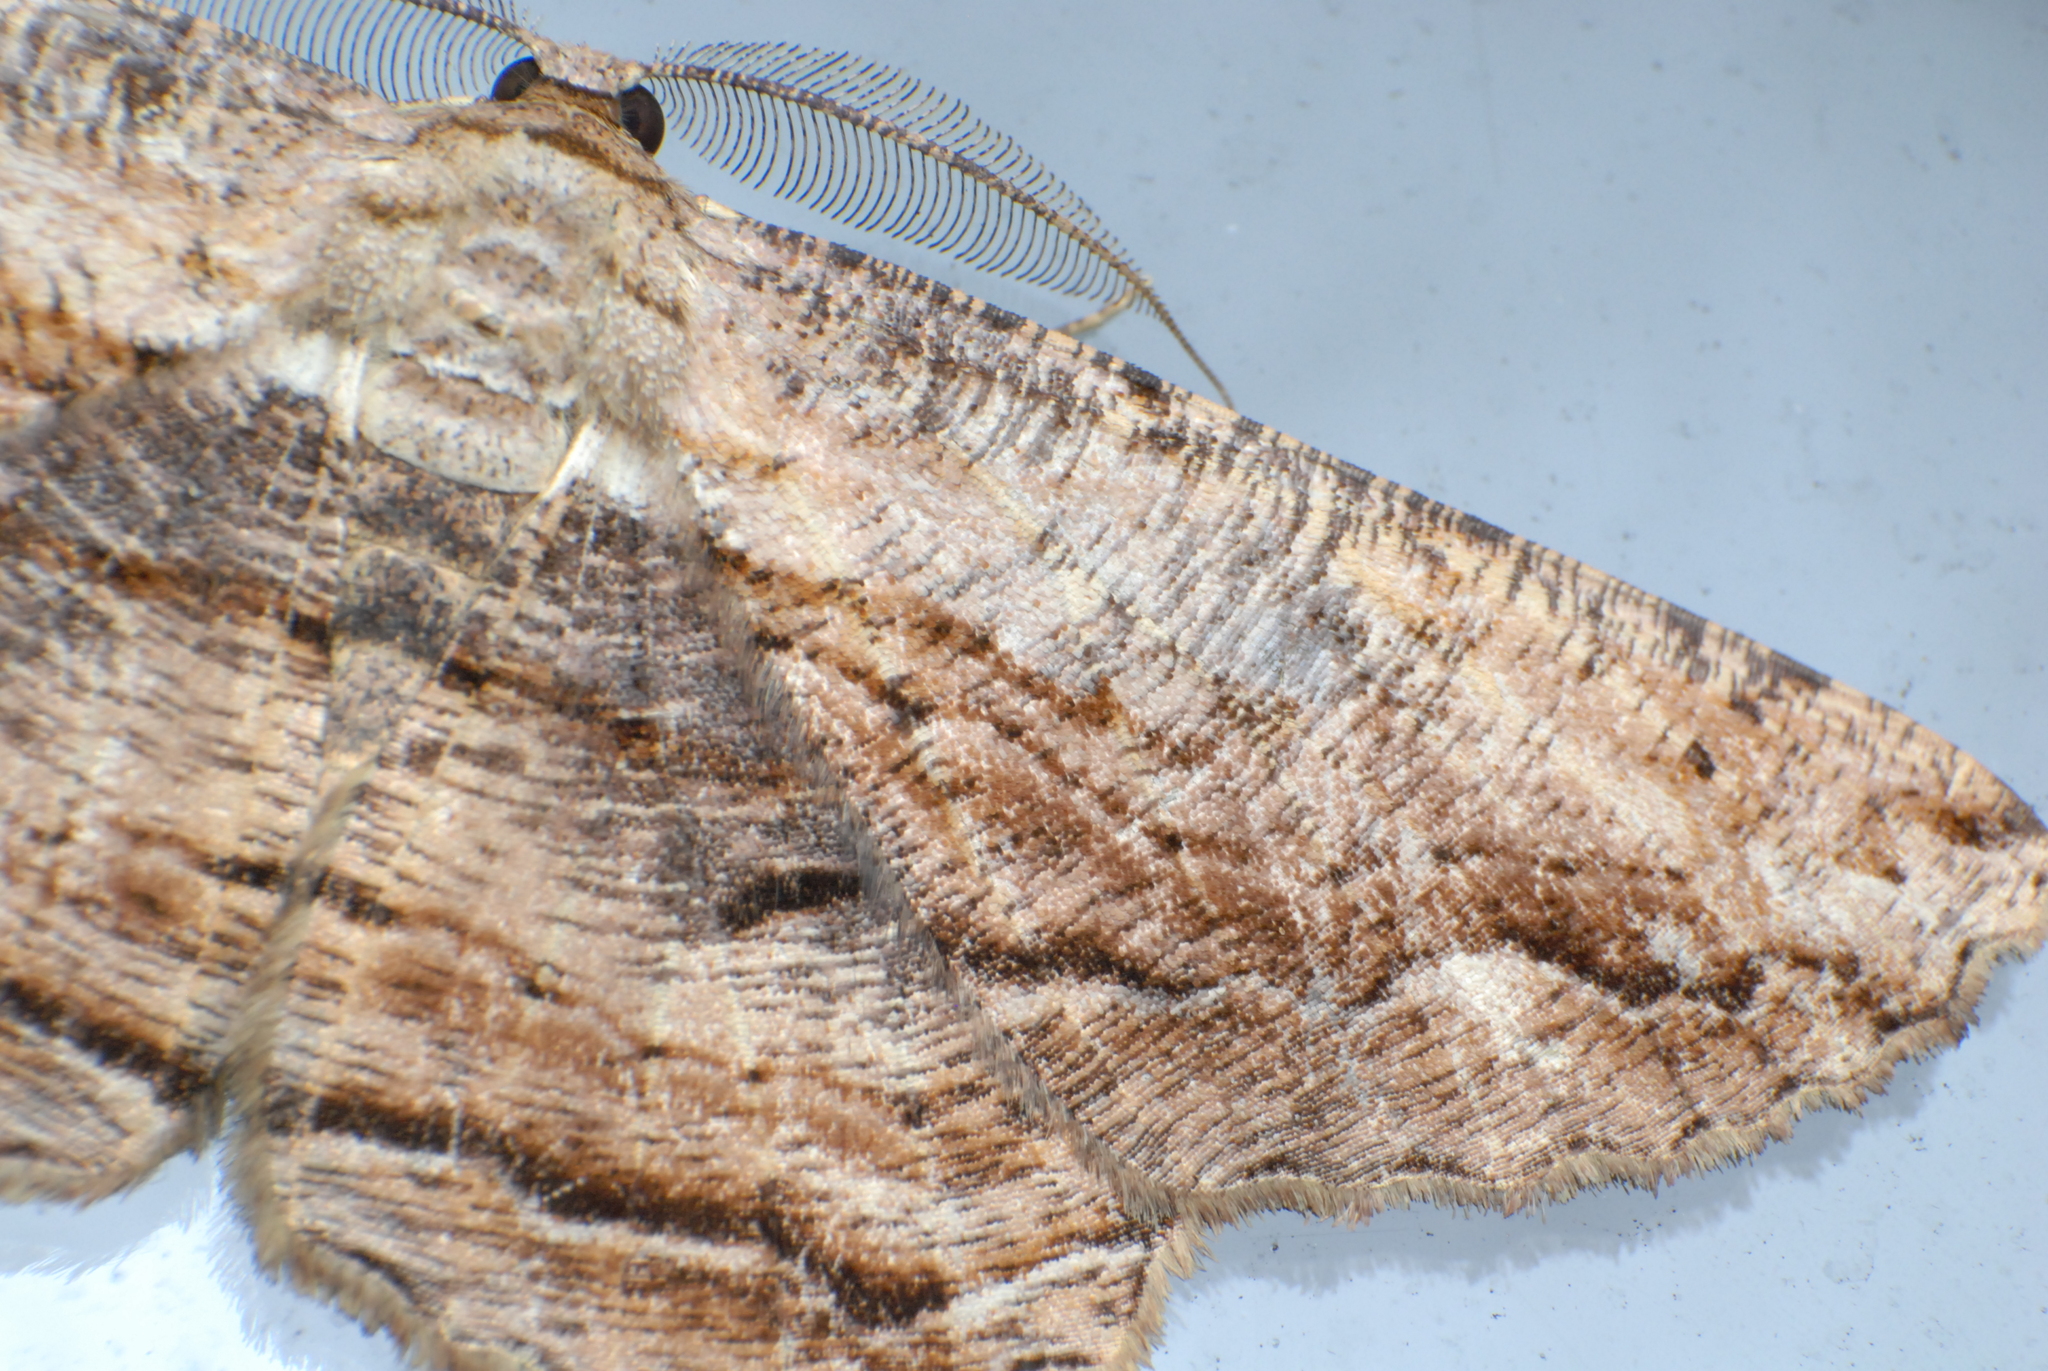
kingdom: Animalia
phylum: Arthropoda
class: Insecta
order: Lepidoptera
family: Geometridae
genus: Scioglyptis
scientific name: Scioglyptis lyciaria
